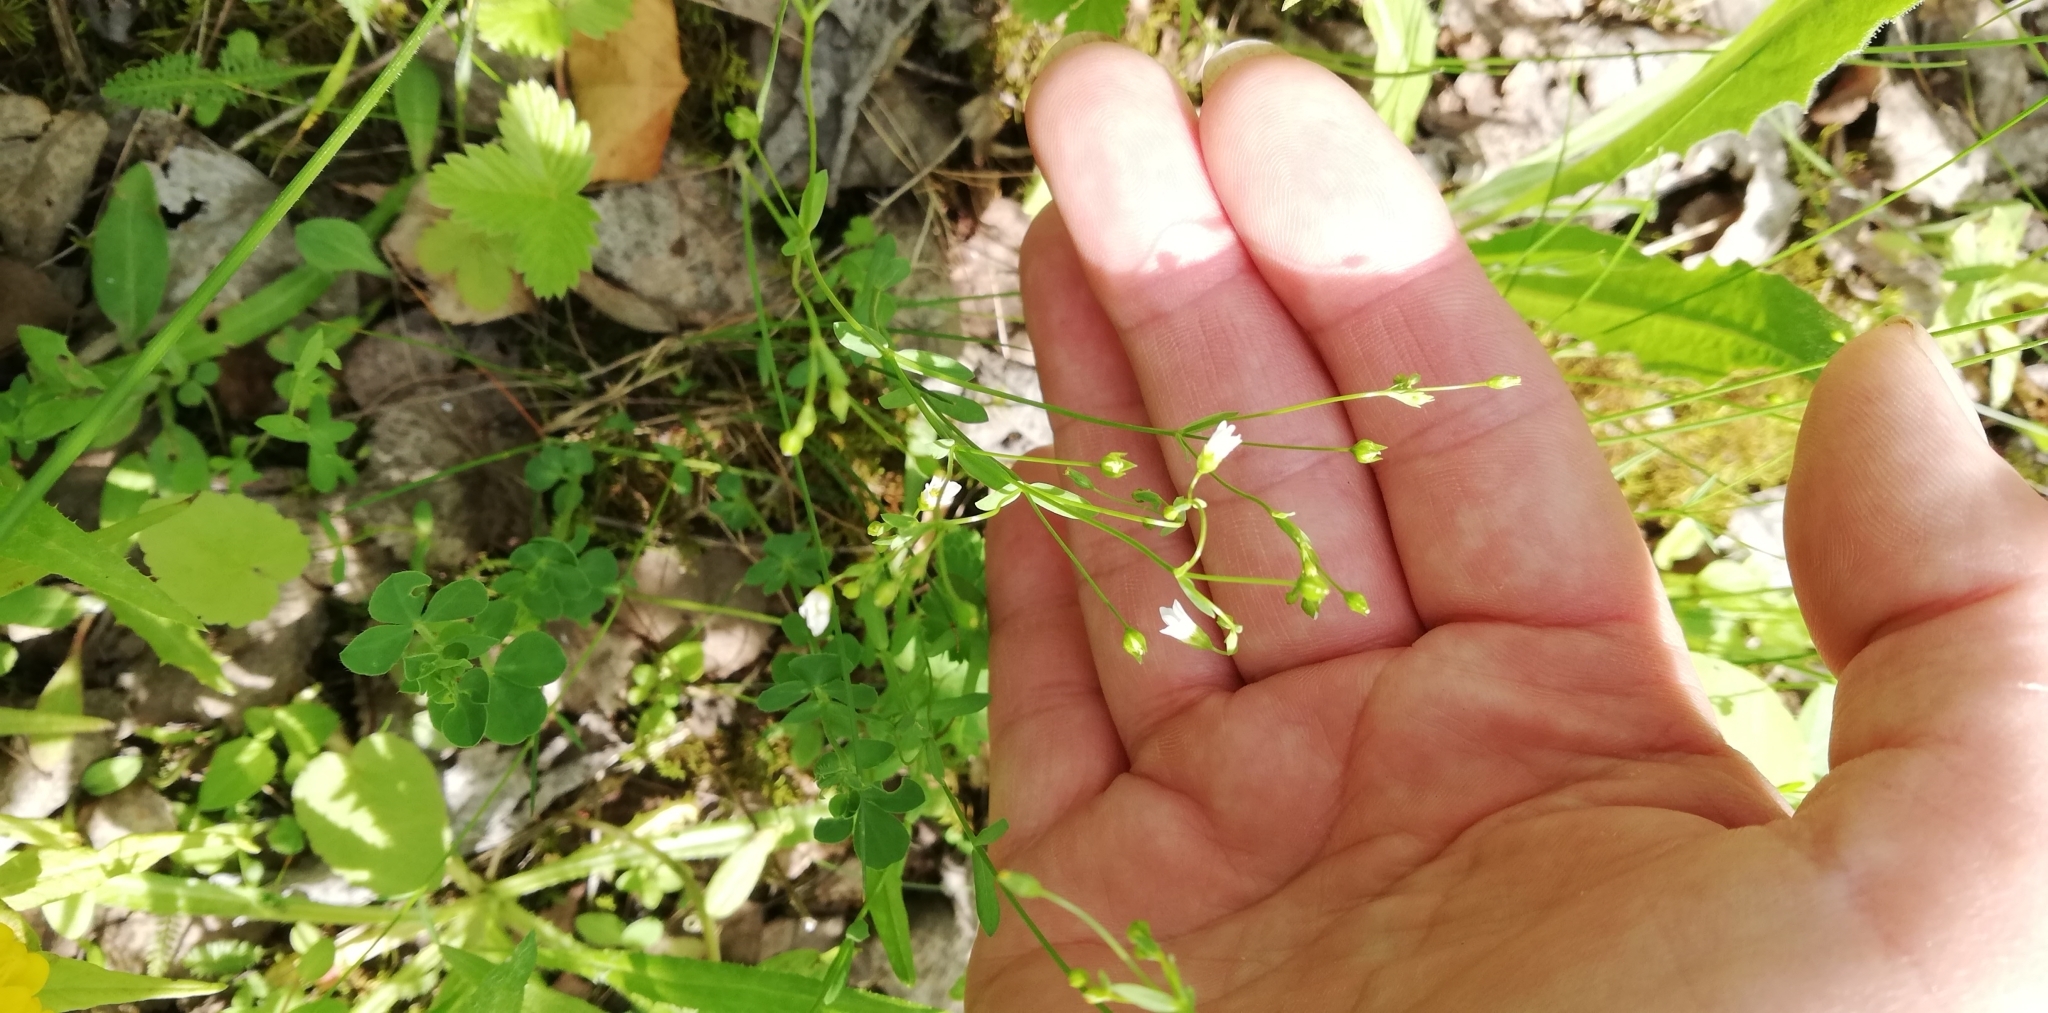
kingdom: Plantae
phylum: Tracheophyta
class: Magnoliopsida
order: Malpighiales
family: Linaceae
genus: Linum
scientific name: Linum catharticum
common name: Fairy flax
